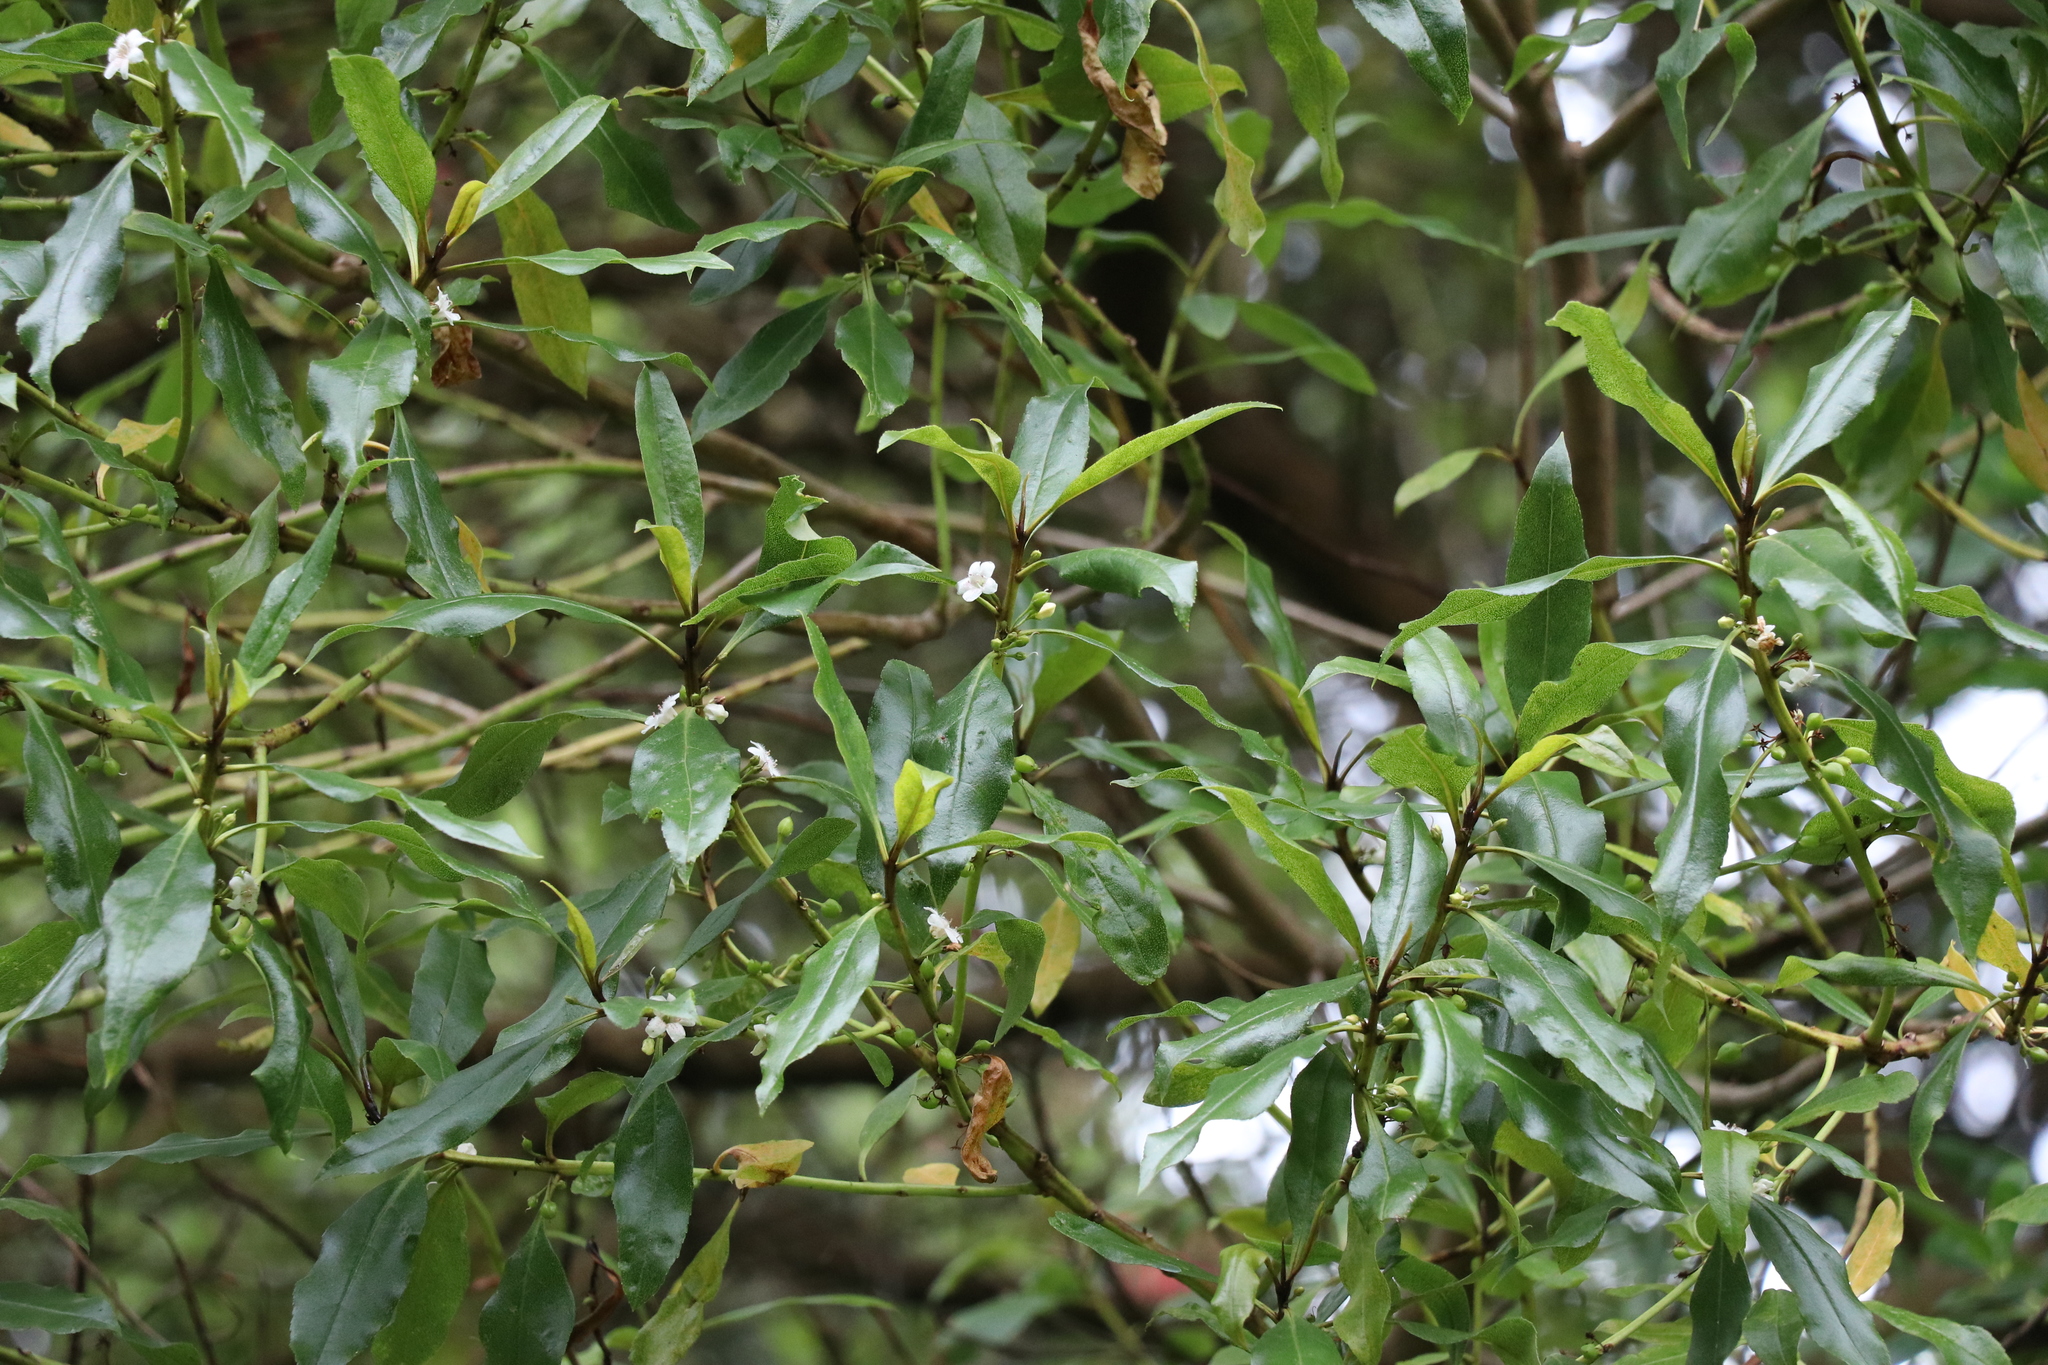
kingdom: Plantae
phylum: Tracheophyta
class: Magnoliopsida
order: Lamiales
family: Scrophulariaceae
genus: Myoporum
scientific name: Myoporum laetum
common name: Ngaio tree
